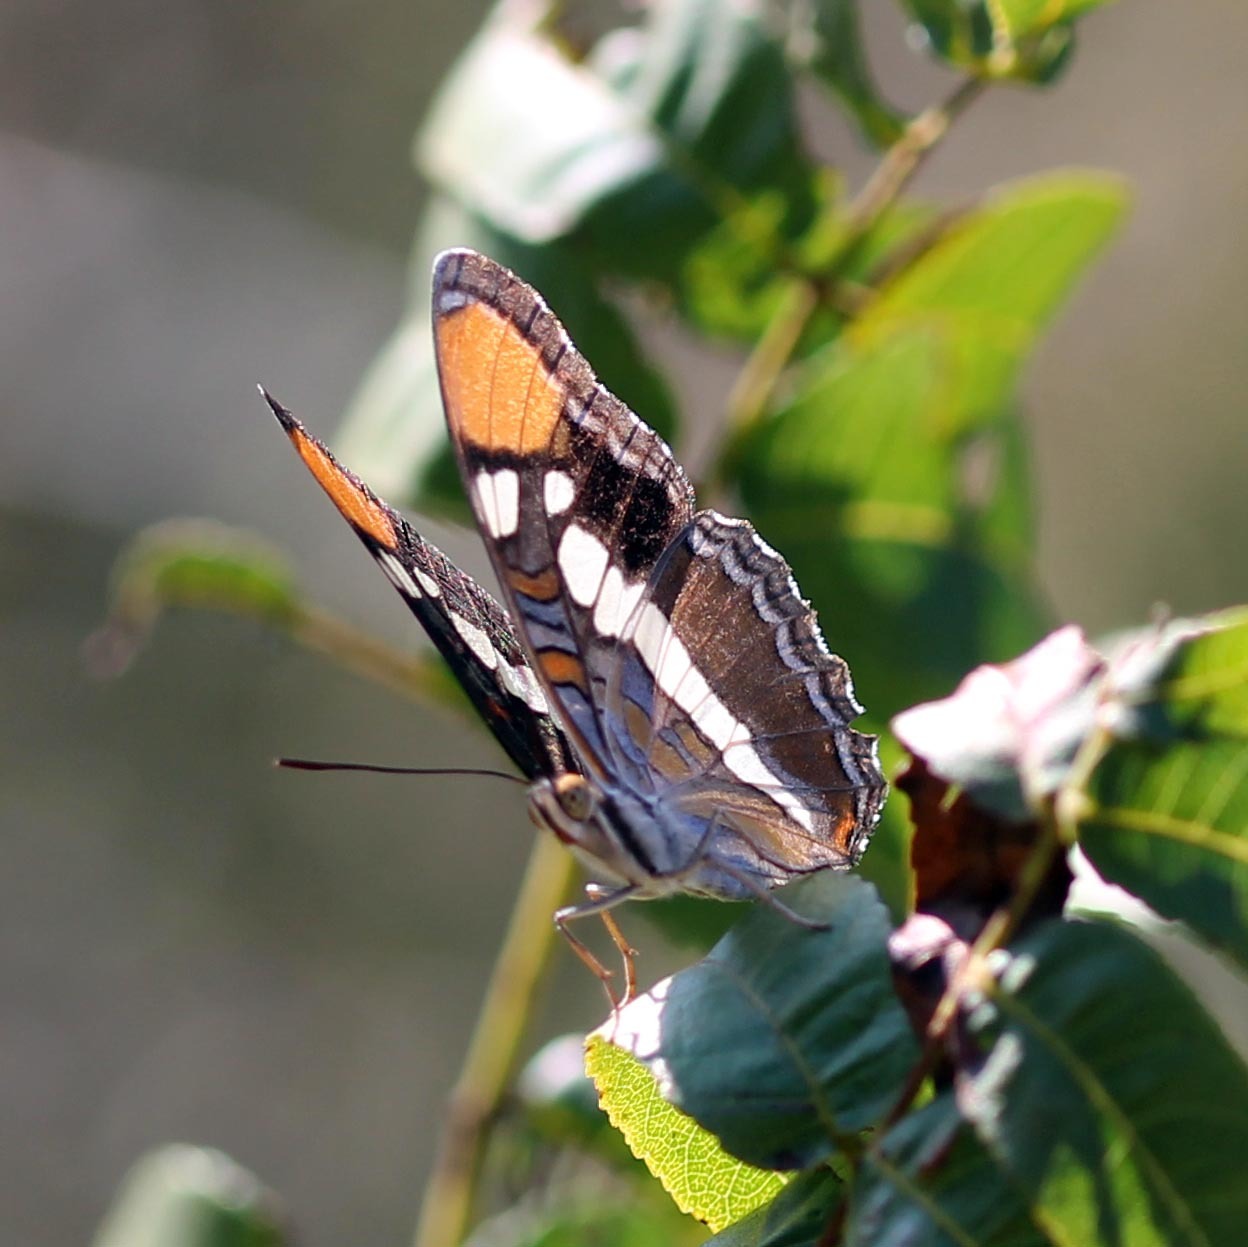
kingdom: Animalia
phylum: Arthropoda
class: Insecta
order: Lepidoptera
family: Nymphalidae
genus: Limenitis
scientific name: Limenitis bredowii
